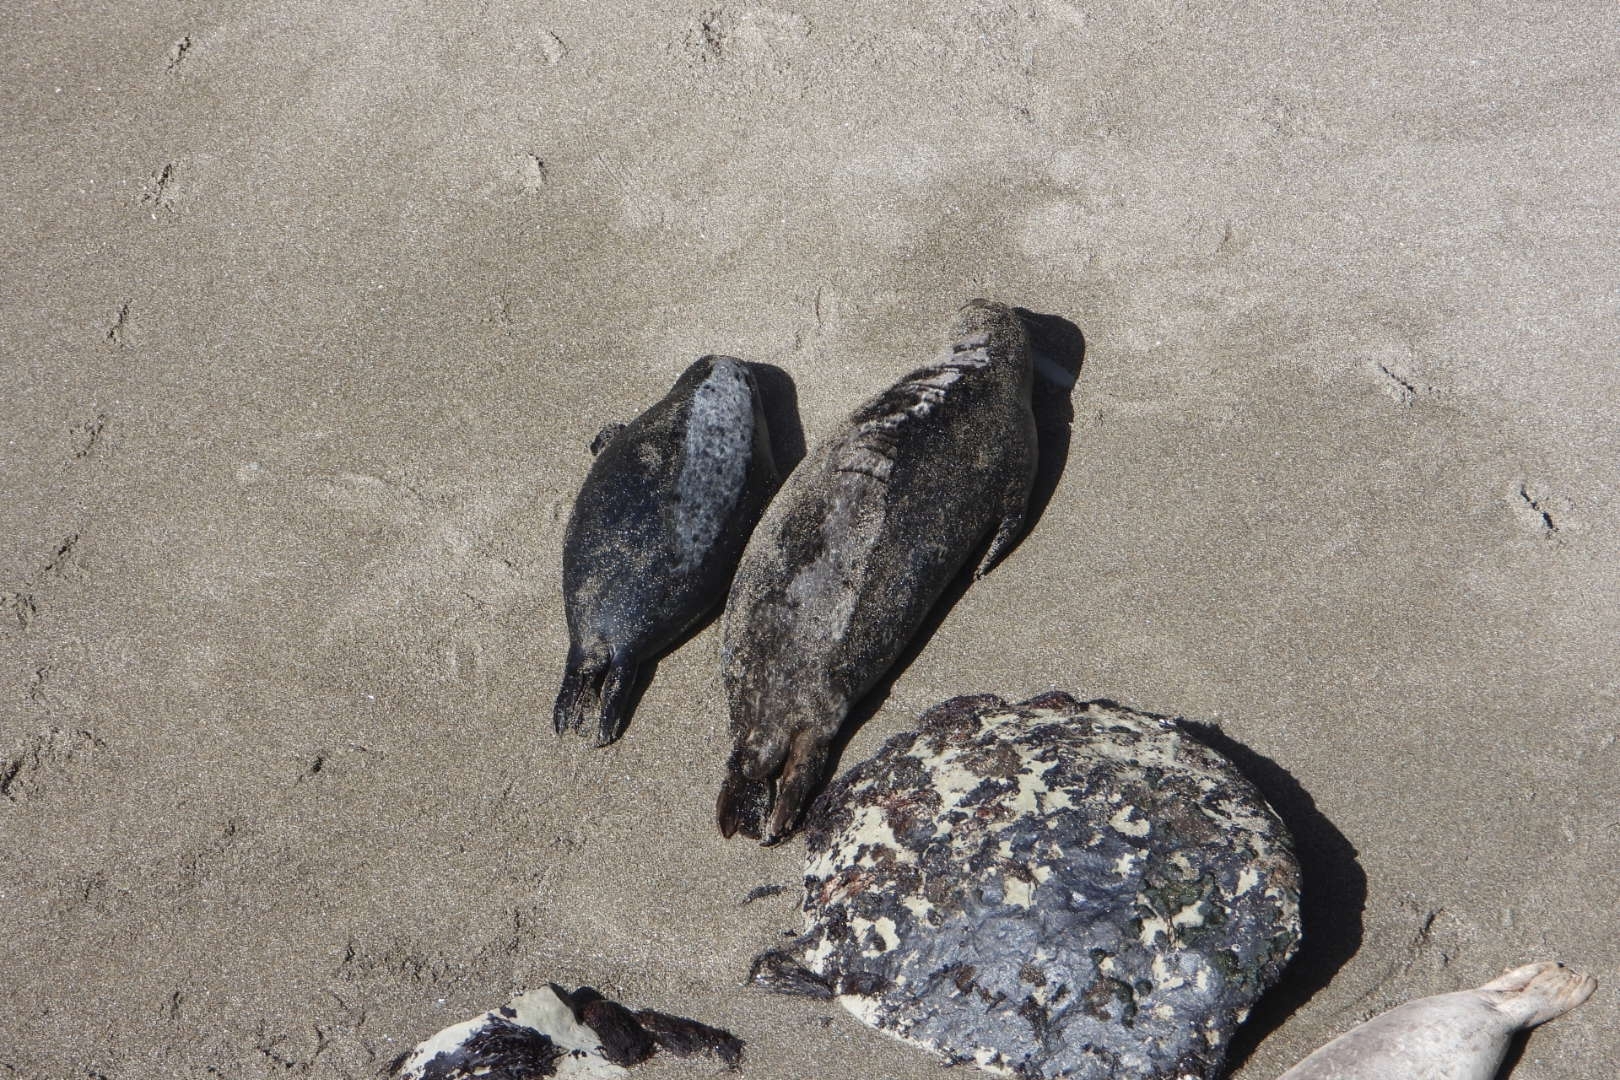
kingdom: Animalia
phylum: Chordata
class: Mammalia
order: Carnivora
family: Phocidae
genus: Phoca
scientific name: Phoca vitulina
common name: Harbor seal
